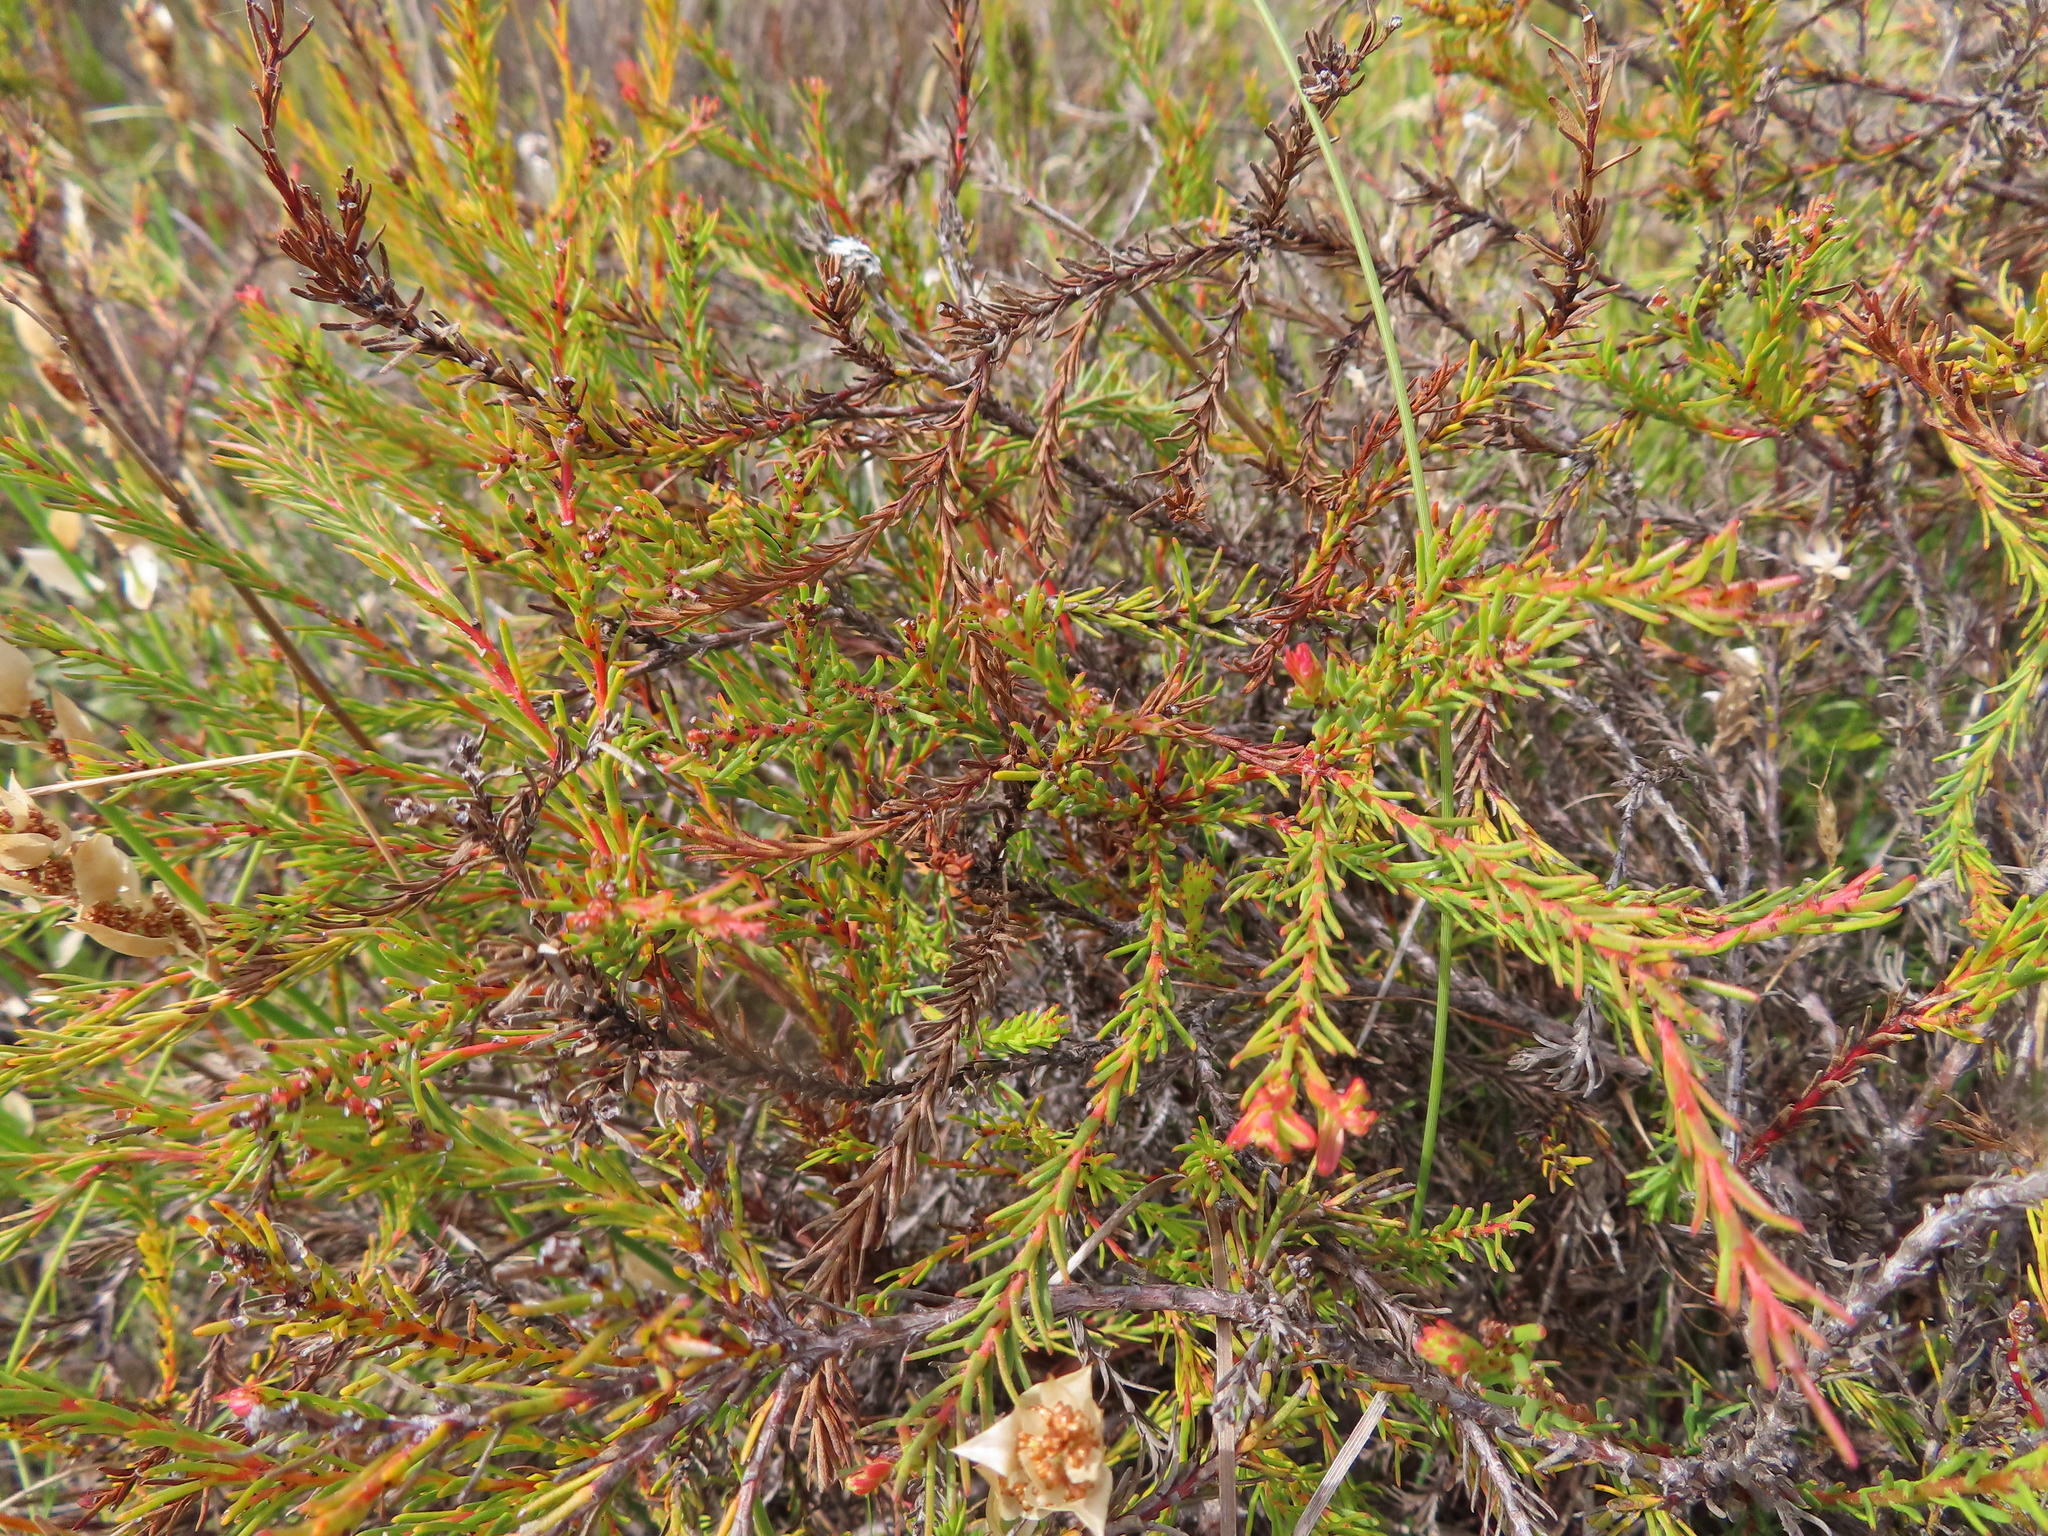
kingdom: Plantae
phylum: Tracheophyta
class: Magnoliopsida
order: Proteales
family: Proteaceae
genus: Protea
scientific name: Protea subulifolia
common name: Awl-leaf sugarbush
